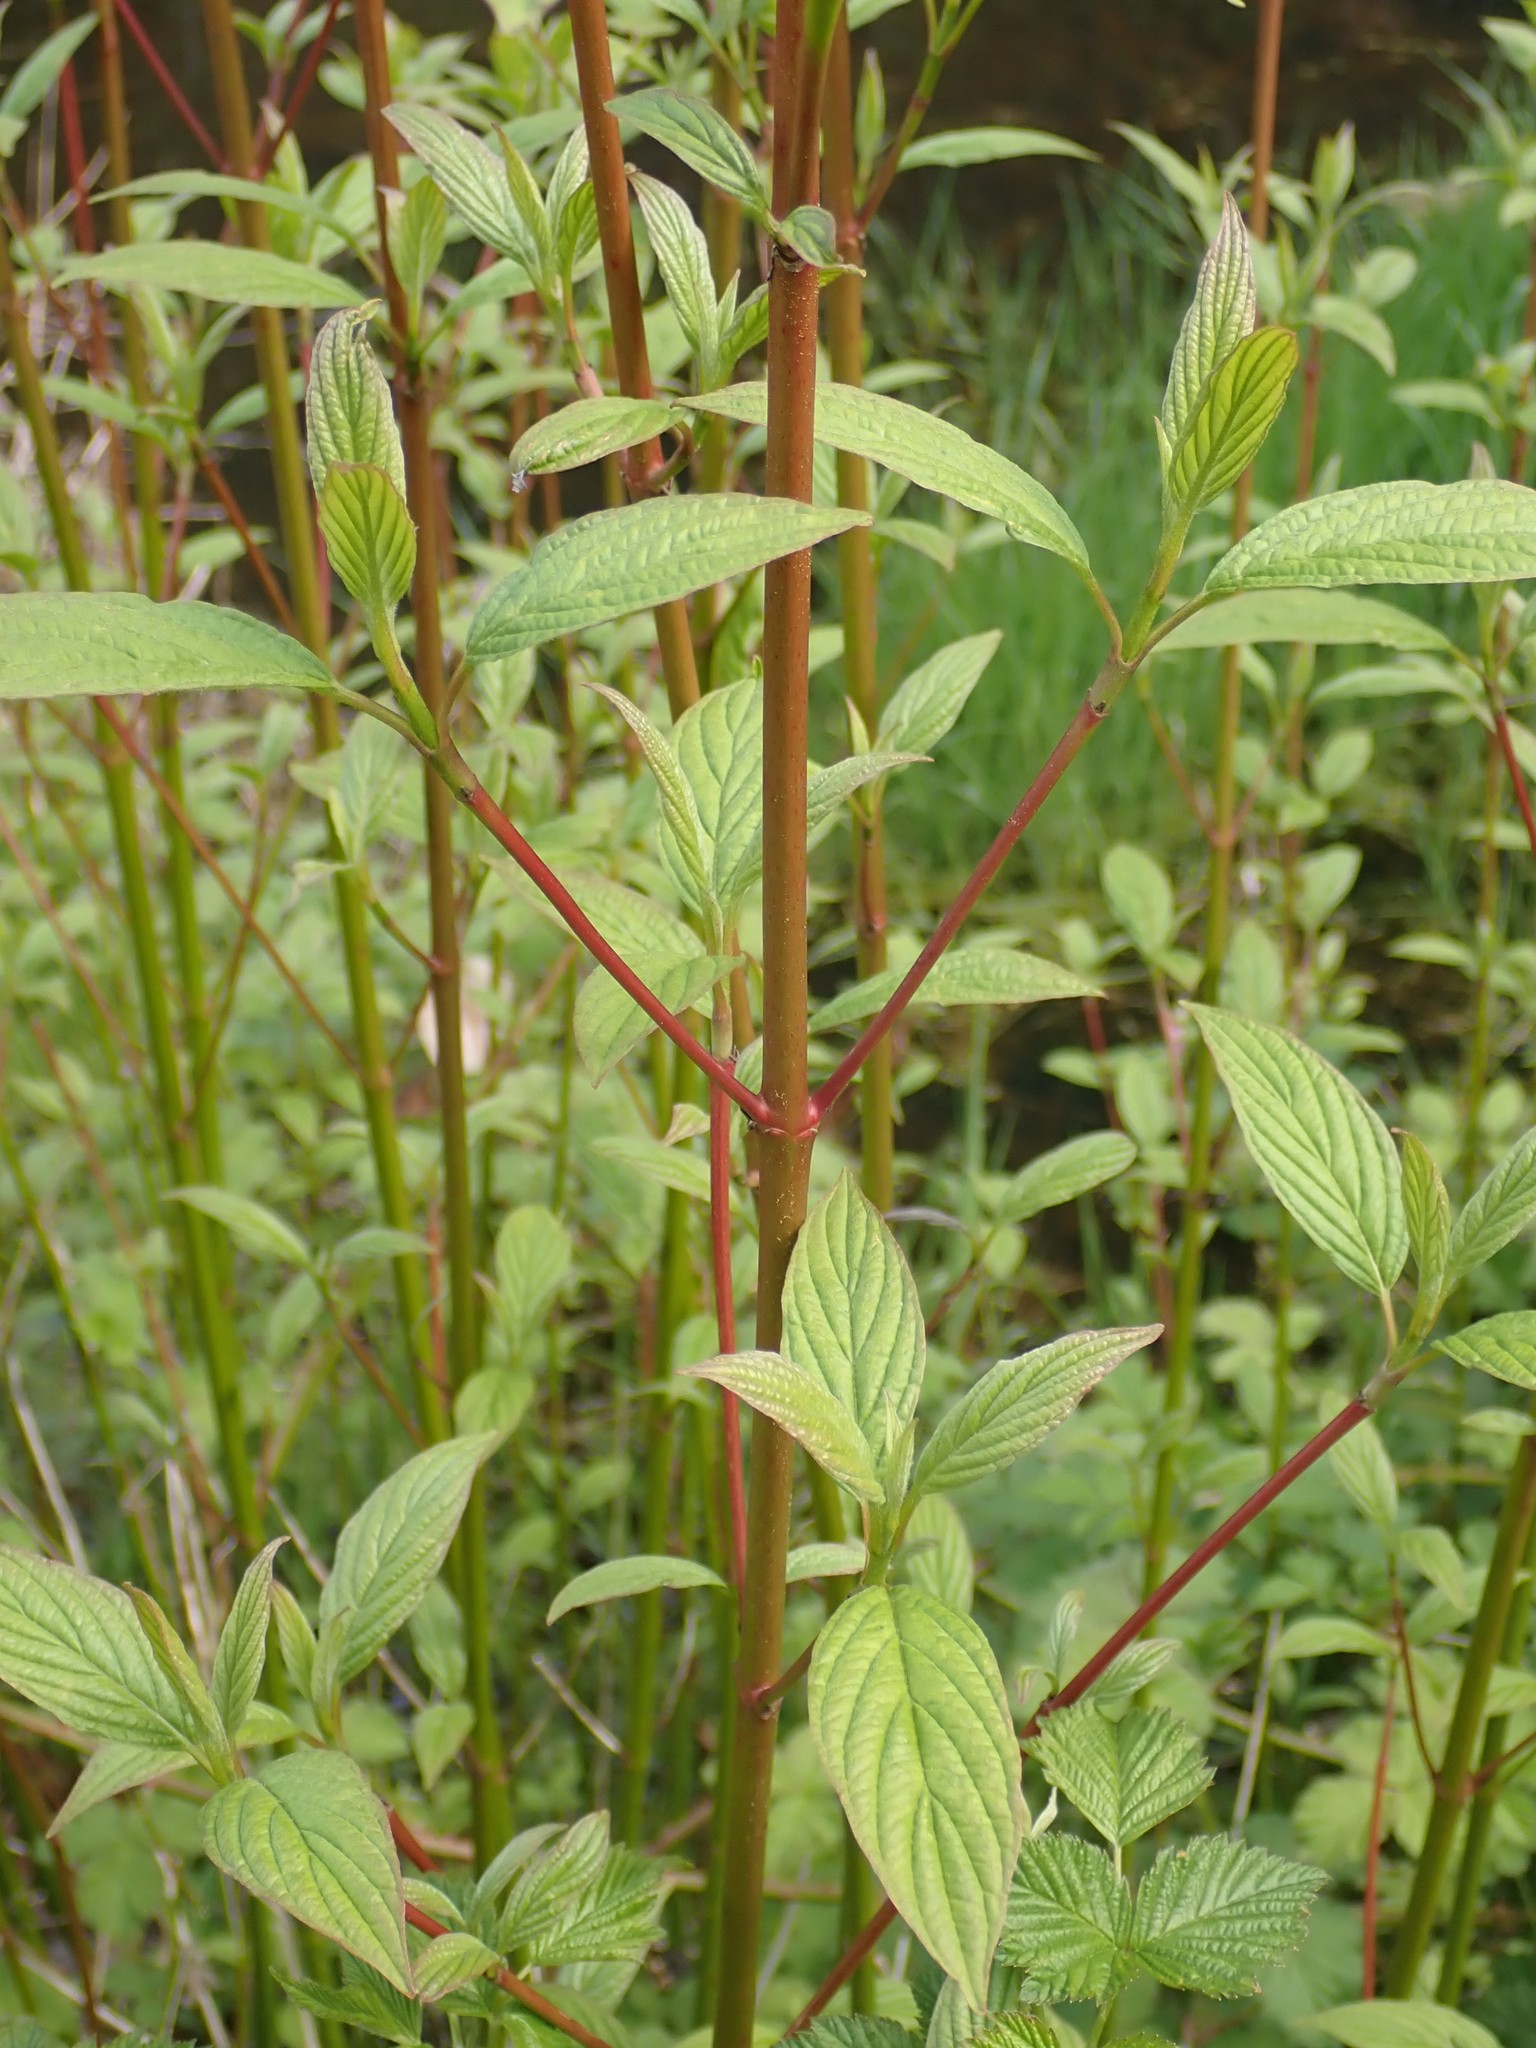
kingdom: Plantae
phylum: Tracheophyta
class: Magnoliopsida
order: Cornales
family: Cornaceae
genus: Cornus
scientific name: Cornus sericea
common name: Red-osier dogwood
